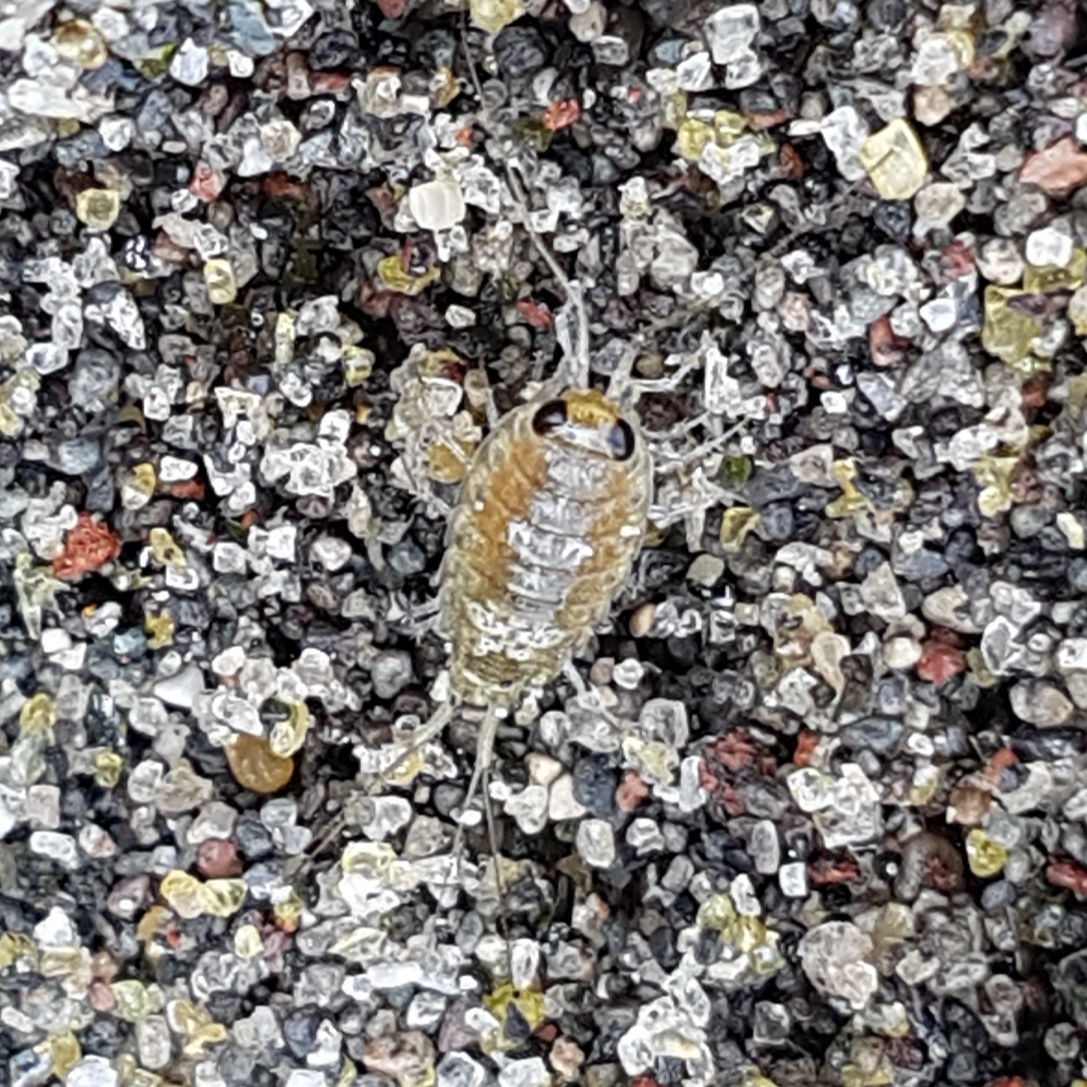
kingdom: Animalia
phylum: Arthropoda
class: Malacostraca
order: Isopoda
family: Ligiidae
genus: Ligia
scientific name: Ligia italica
